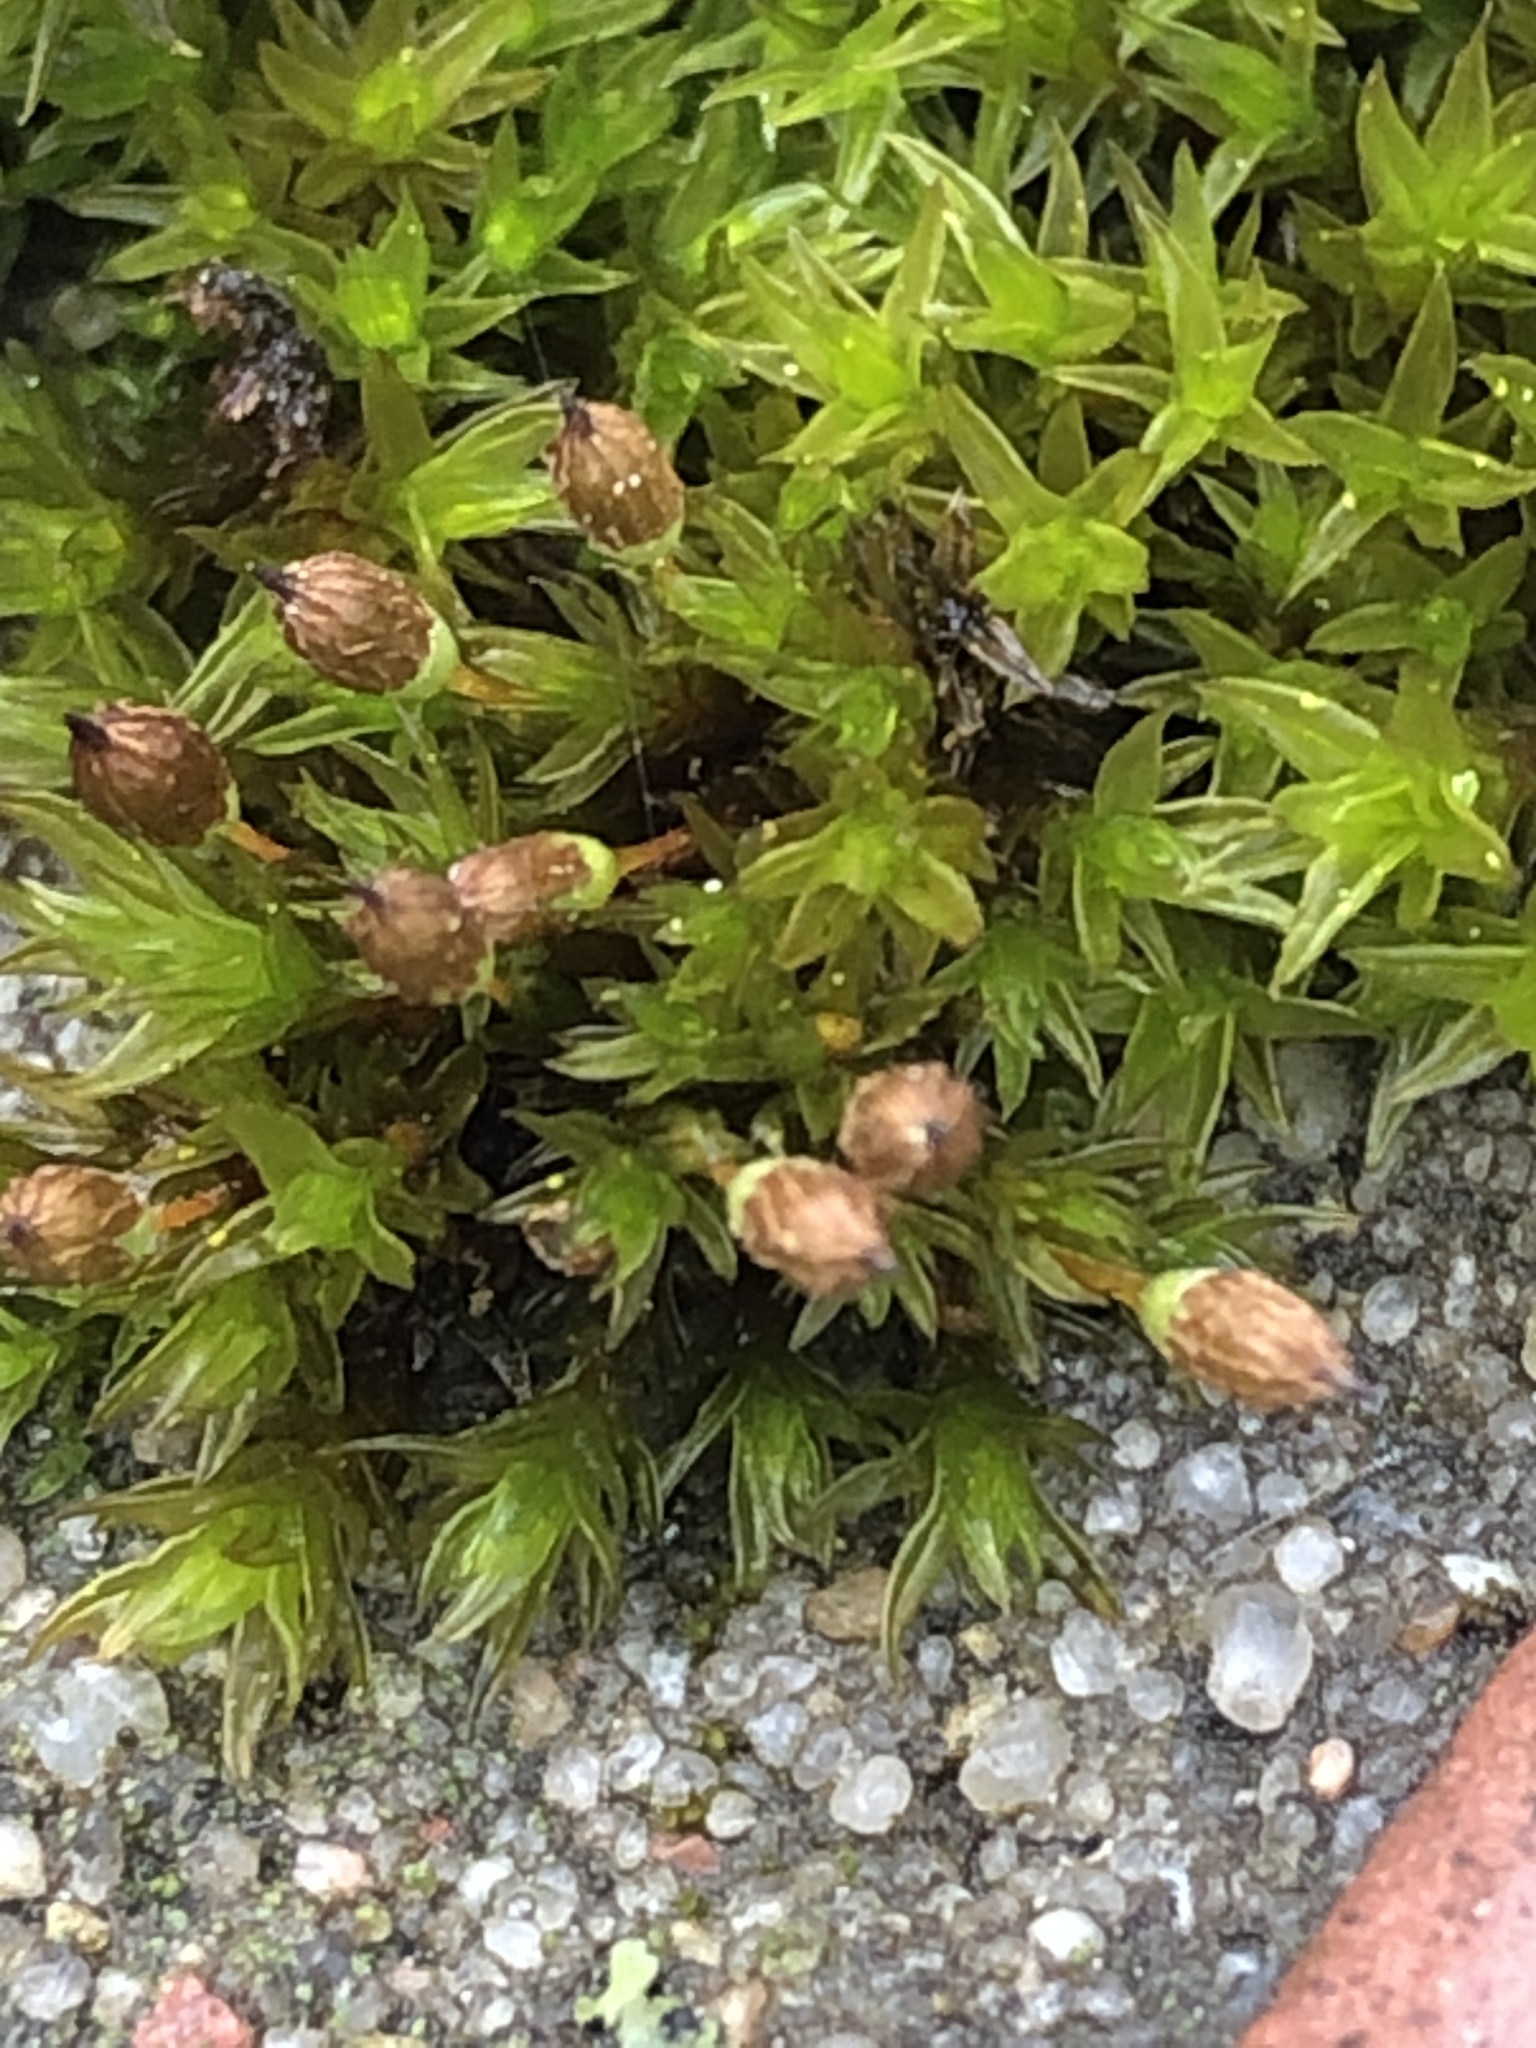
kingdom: Plantae
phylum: Bryophyta
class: Bryopsida
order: Orthotrichales
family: Orthotrichaceae
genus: Orthotrichum
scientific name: Orthotrichum anomalum
